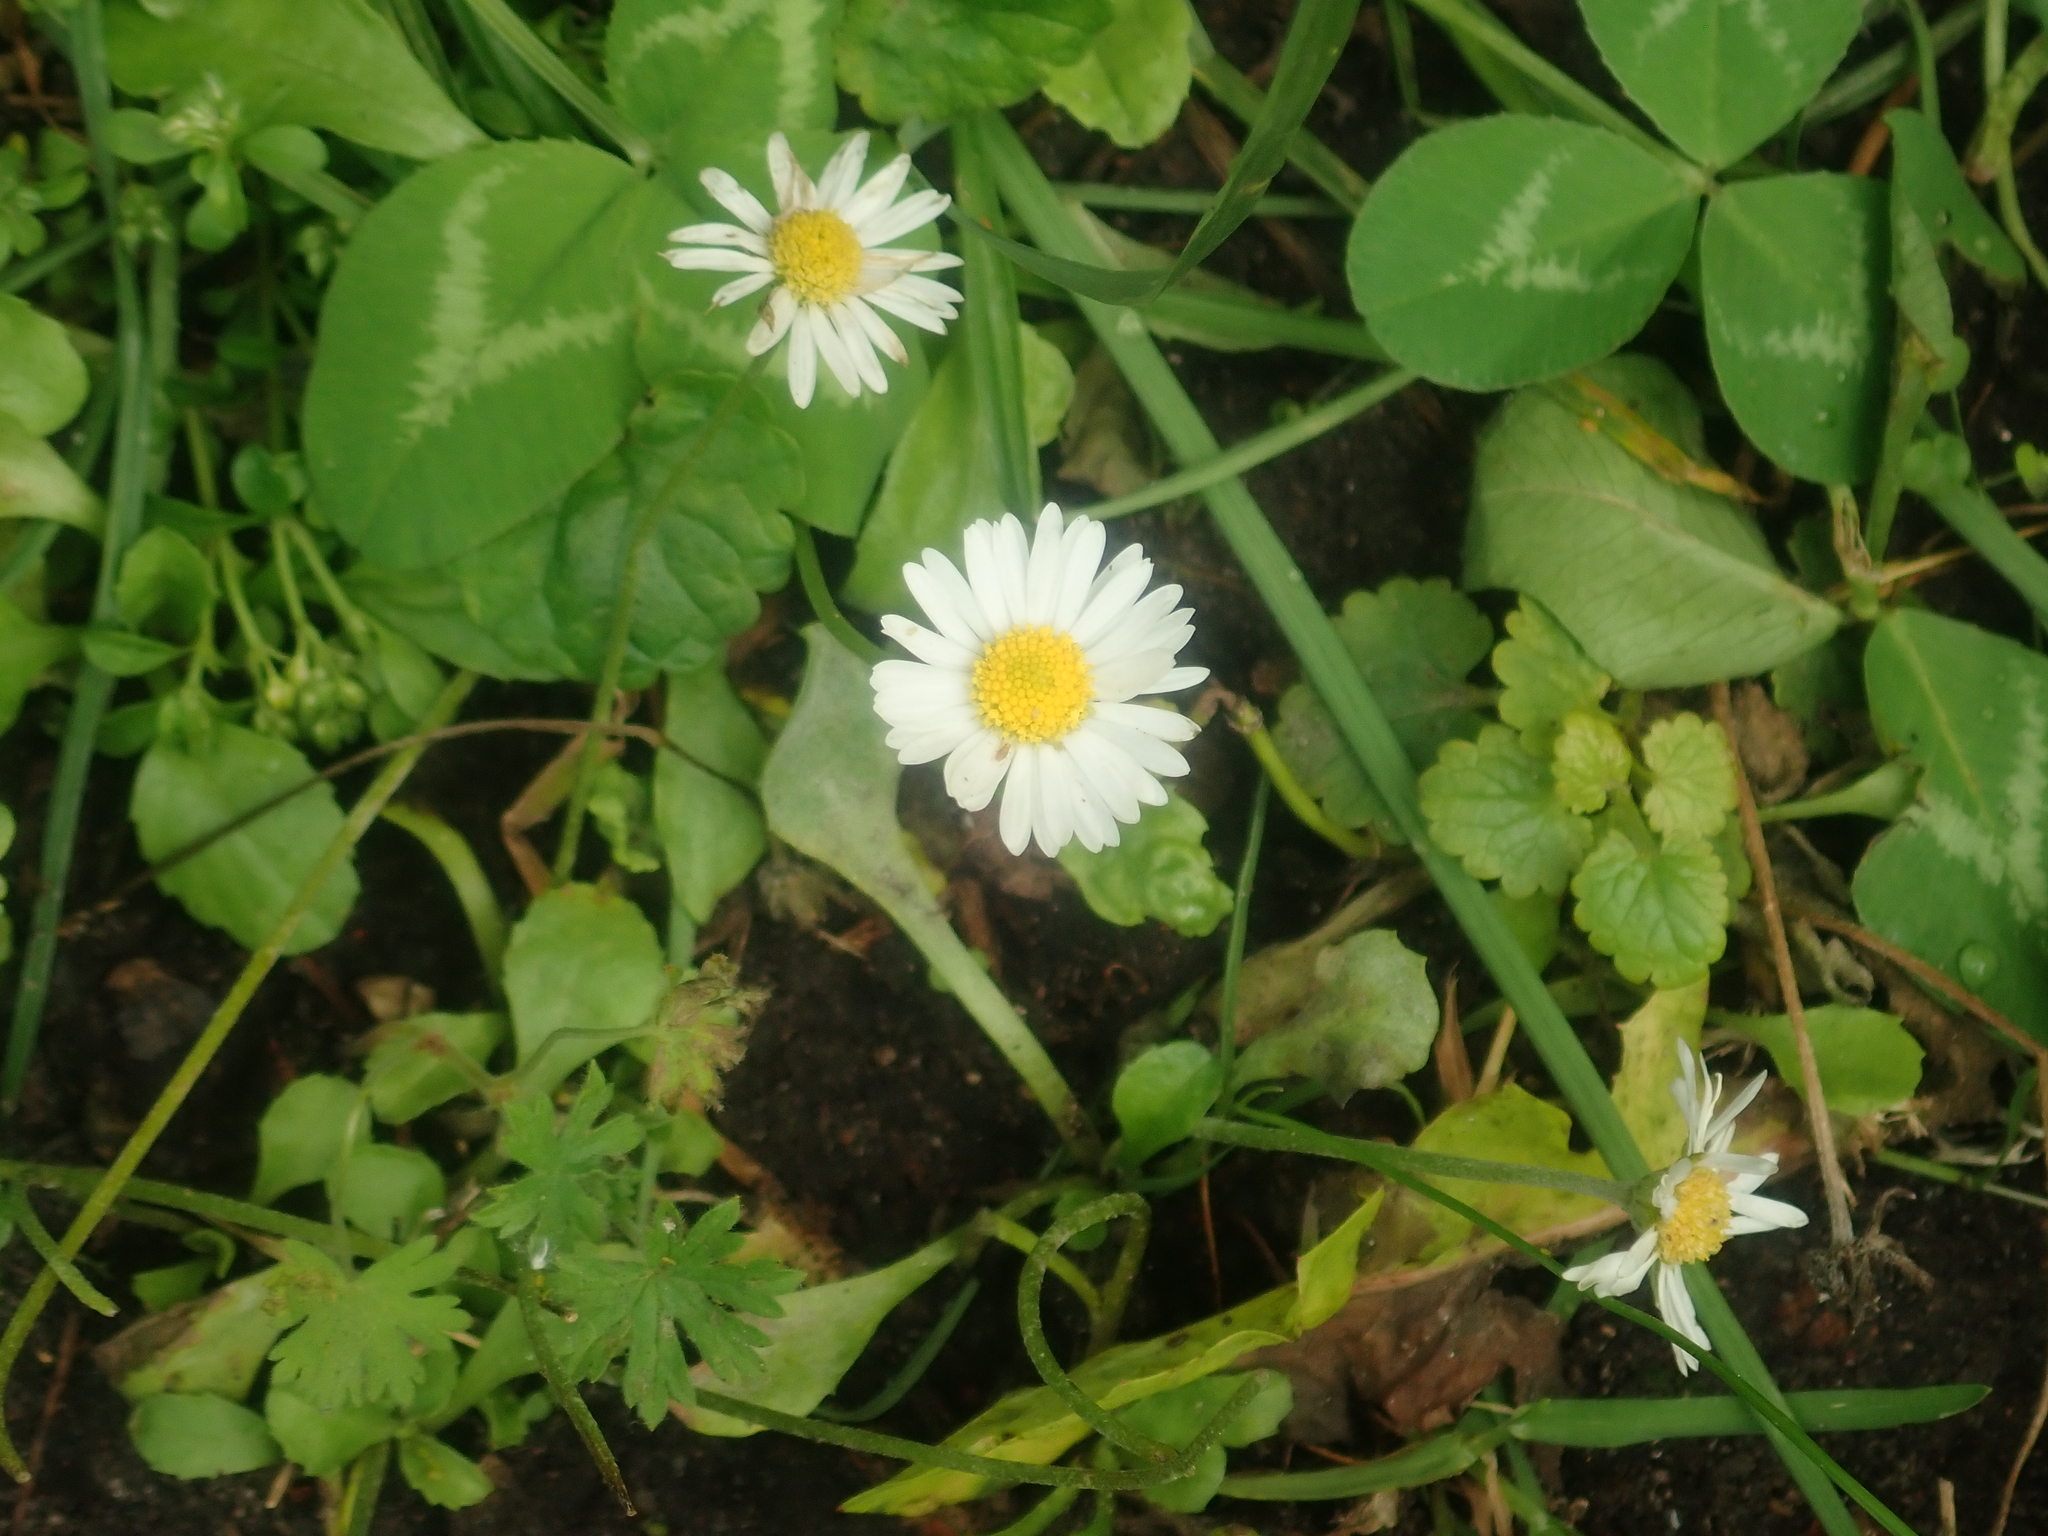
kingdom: Plantae
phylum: Tracheophyta
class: Magnoliopsida
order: Asterales
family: Asteraceae
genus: Bellis
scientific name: Bellis perennis
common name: Lawndaisy
